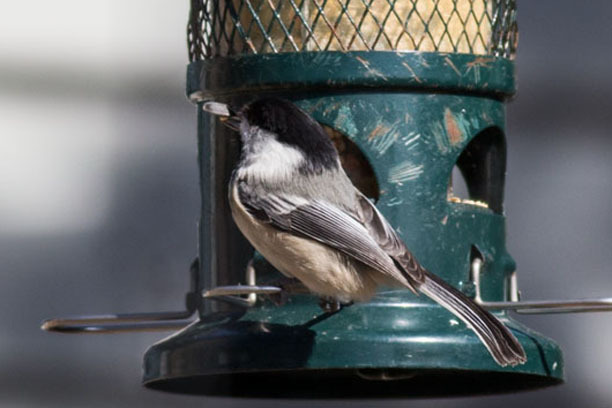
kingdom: Animalia
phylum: Chordata
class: Aves
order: Passeriformes
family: Paridae
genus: Poecile
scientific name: Poecile atricapillus
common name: Black-capped chickadee
